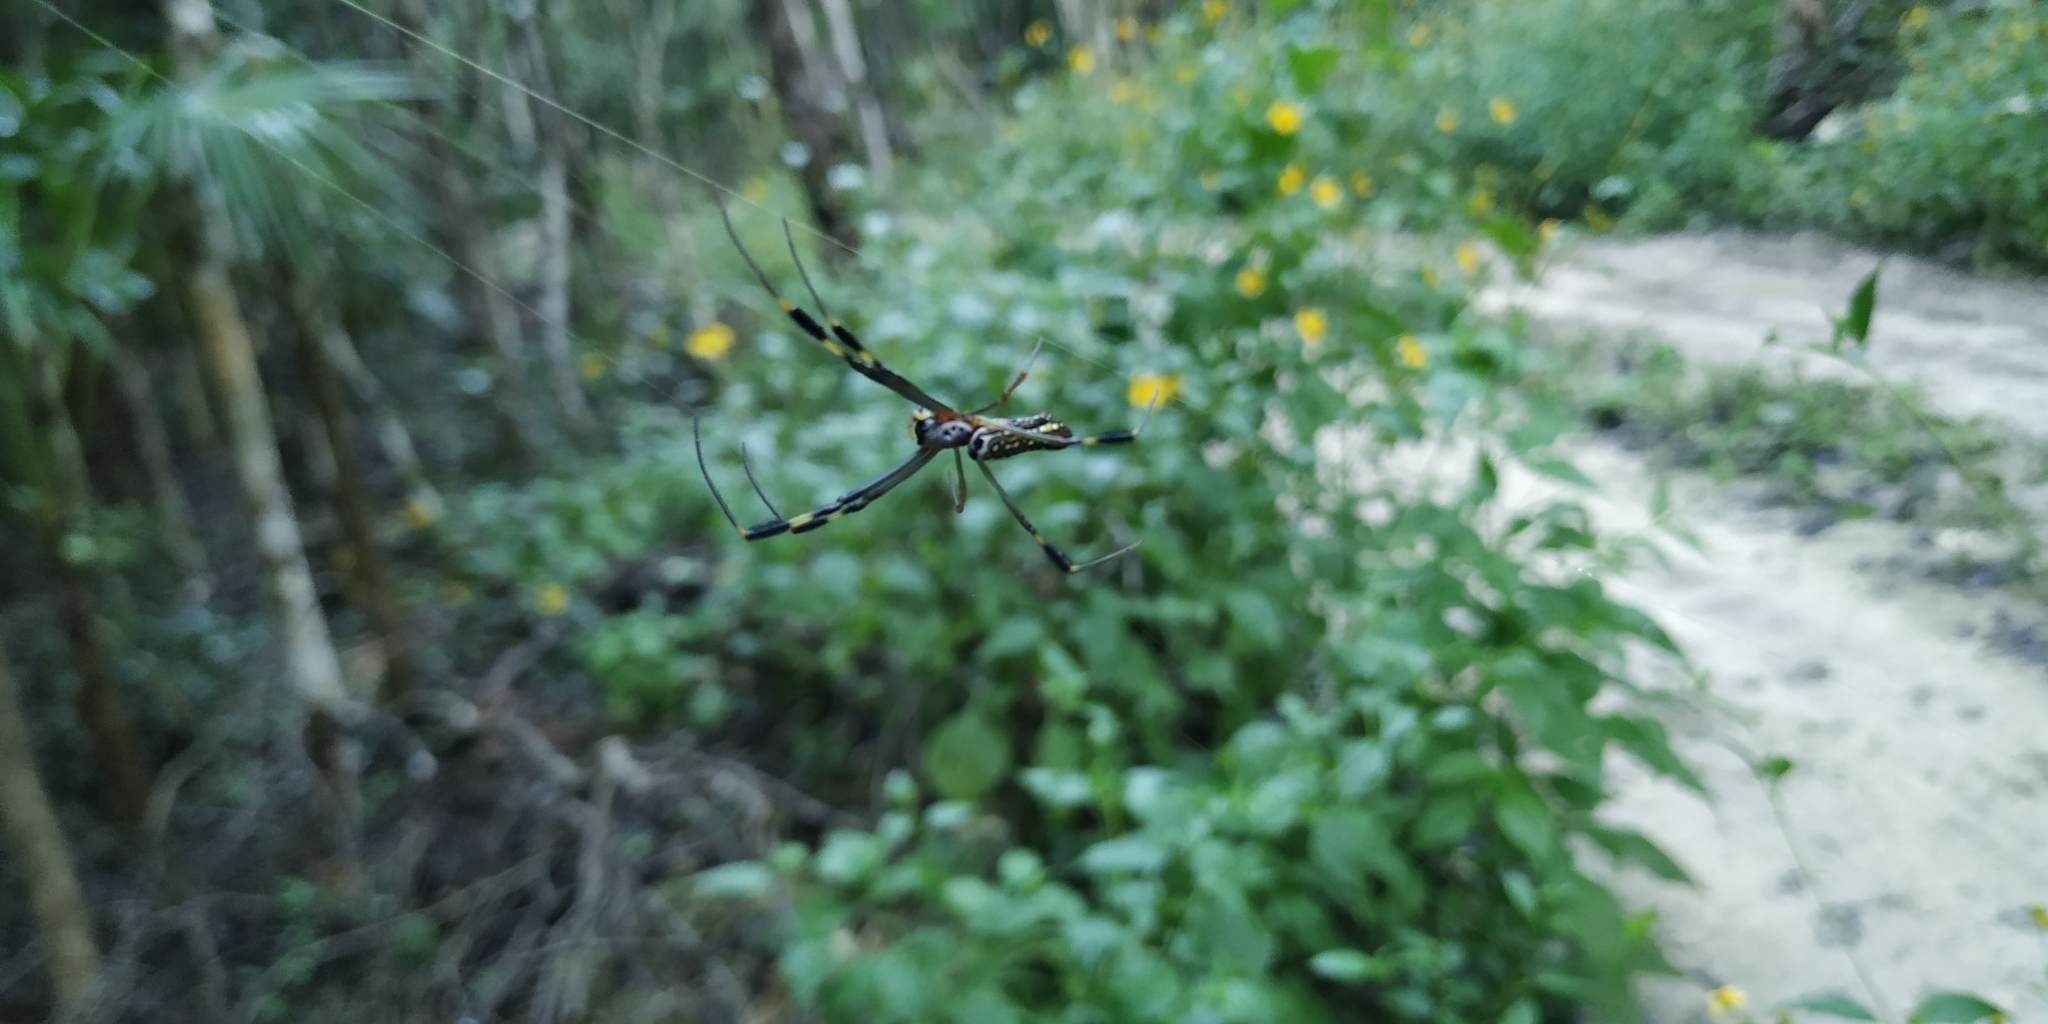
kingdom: Animalia
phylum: Arthropoda
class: Arachnida
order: Araneae
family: Araneidae
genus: Trichonephila
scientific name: Trichonephila clavipes
